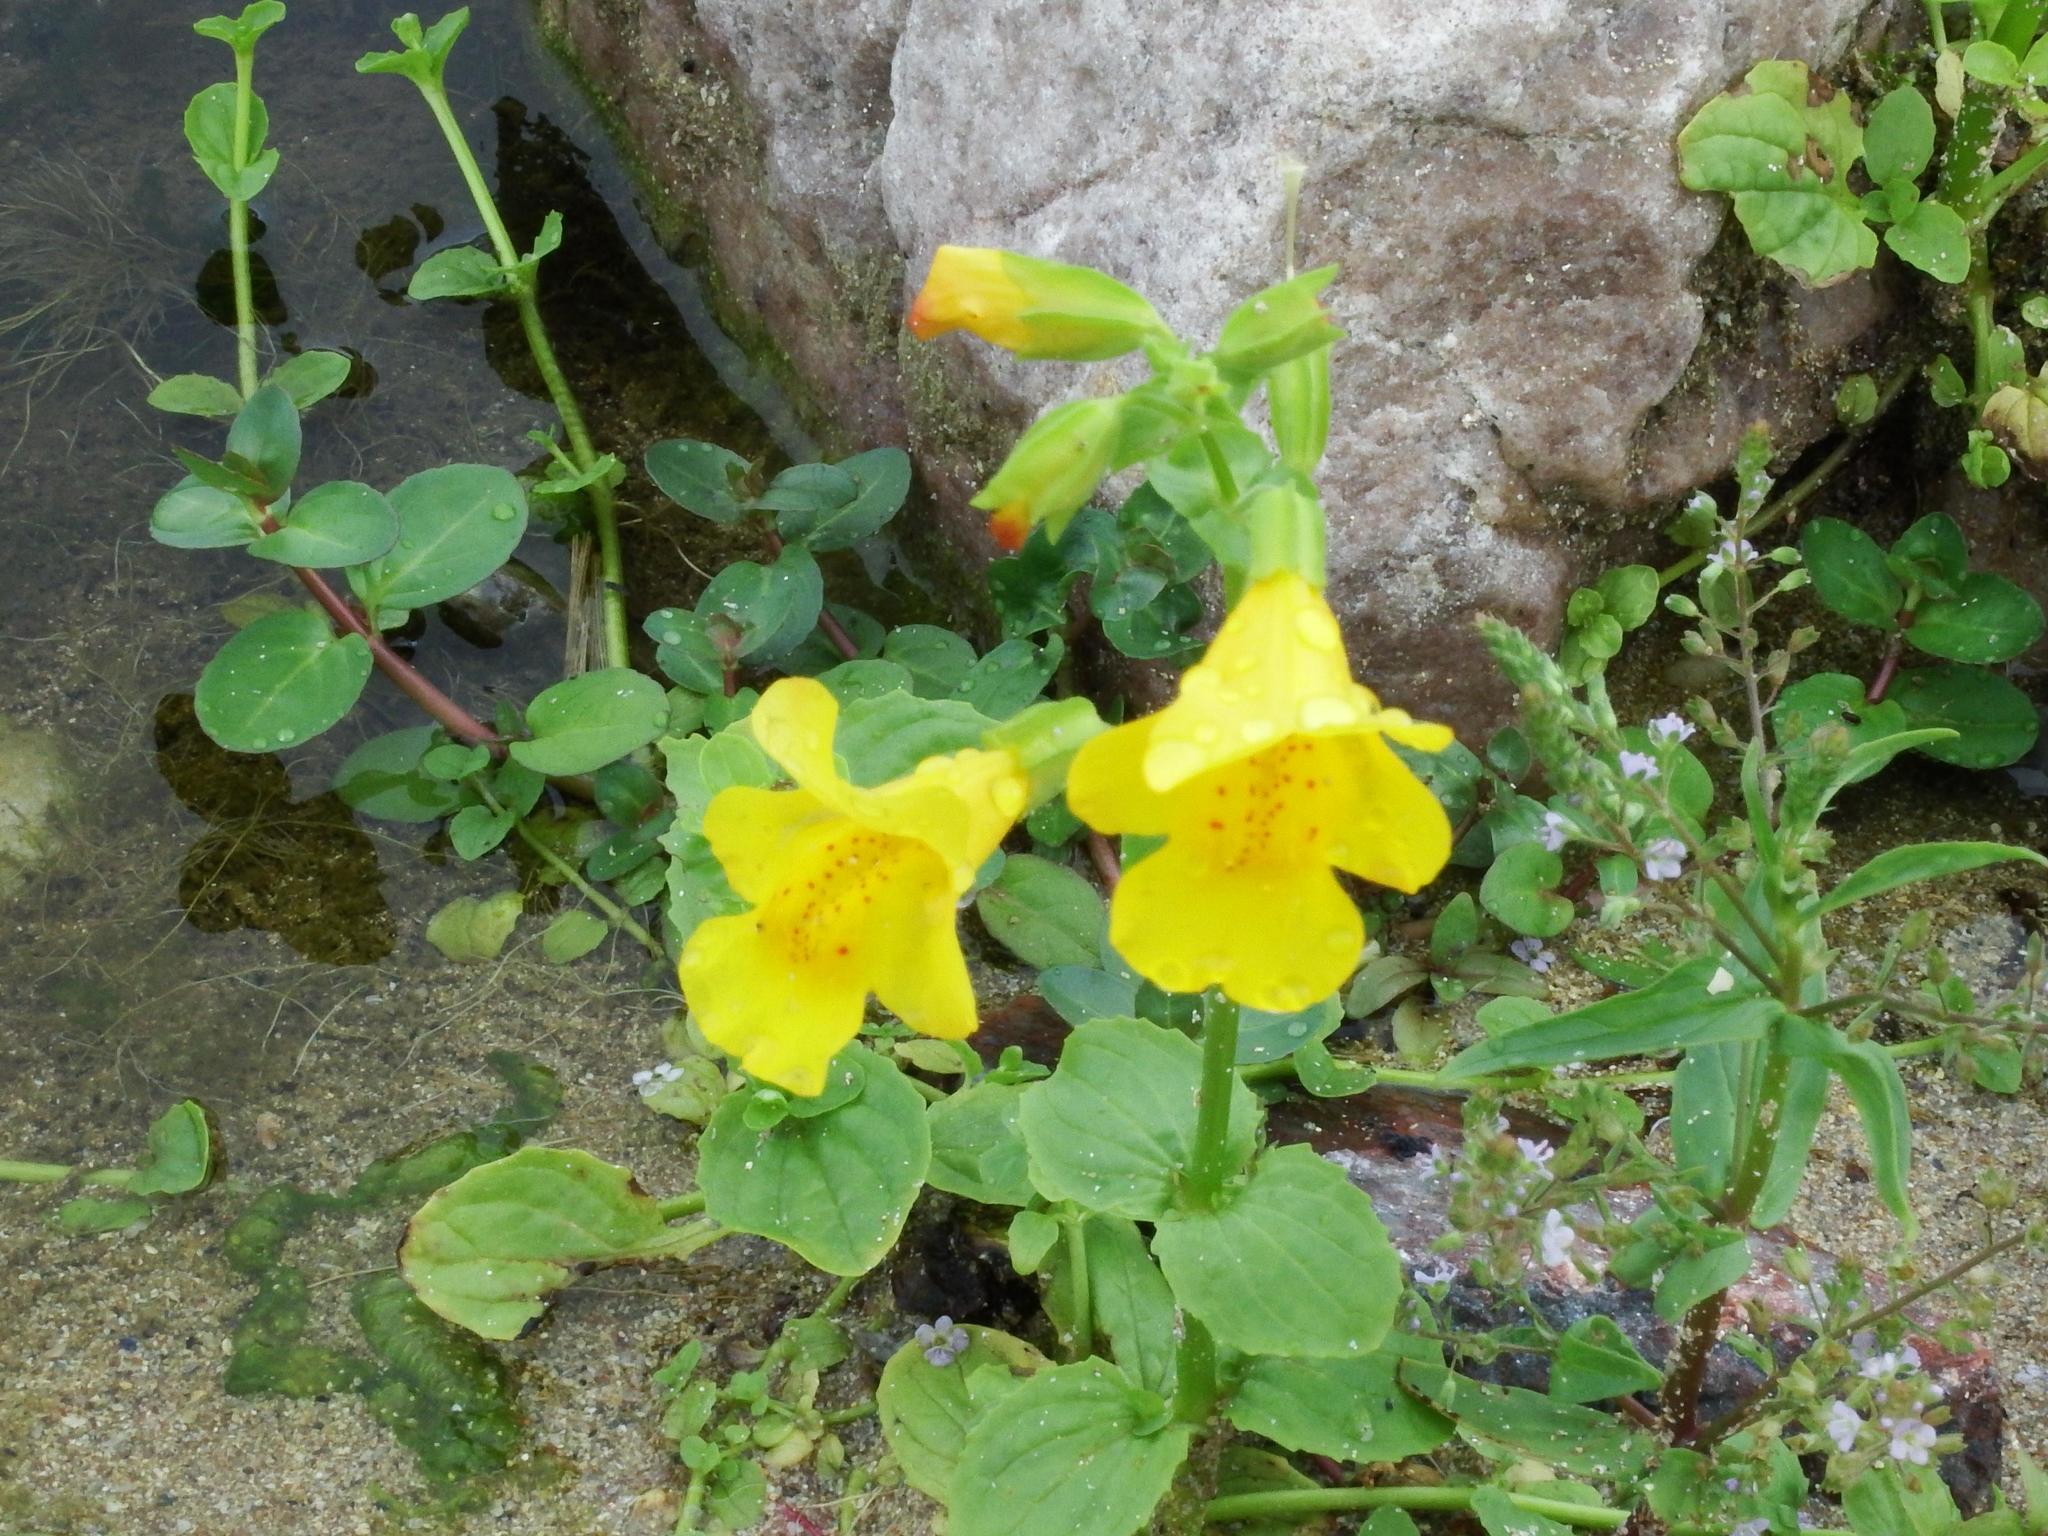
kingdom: Plantae
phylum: Tracheophyta
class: Magnoliopsida
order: Lamiales
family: Phrymaceae
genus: Erythranthe
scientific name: Erythranthe guttata
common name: Monkeyflower
